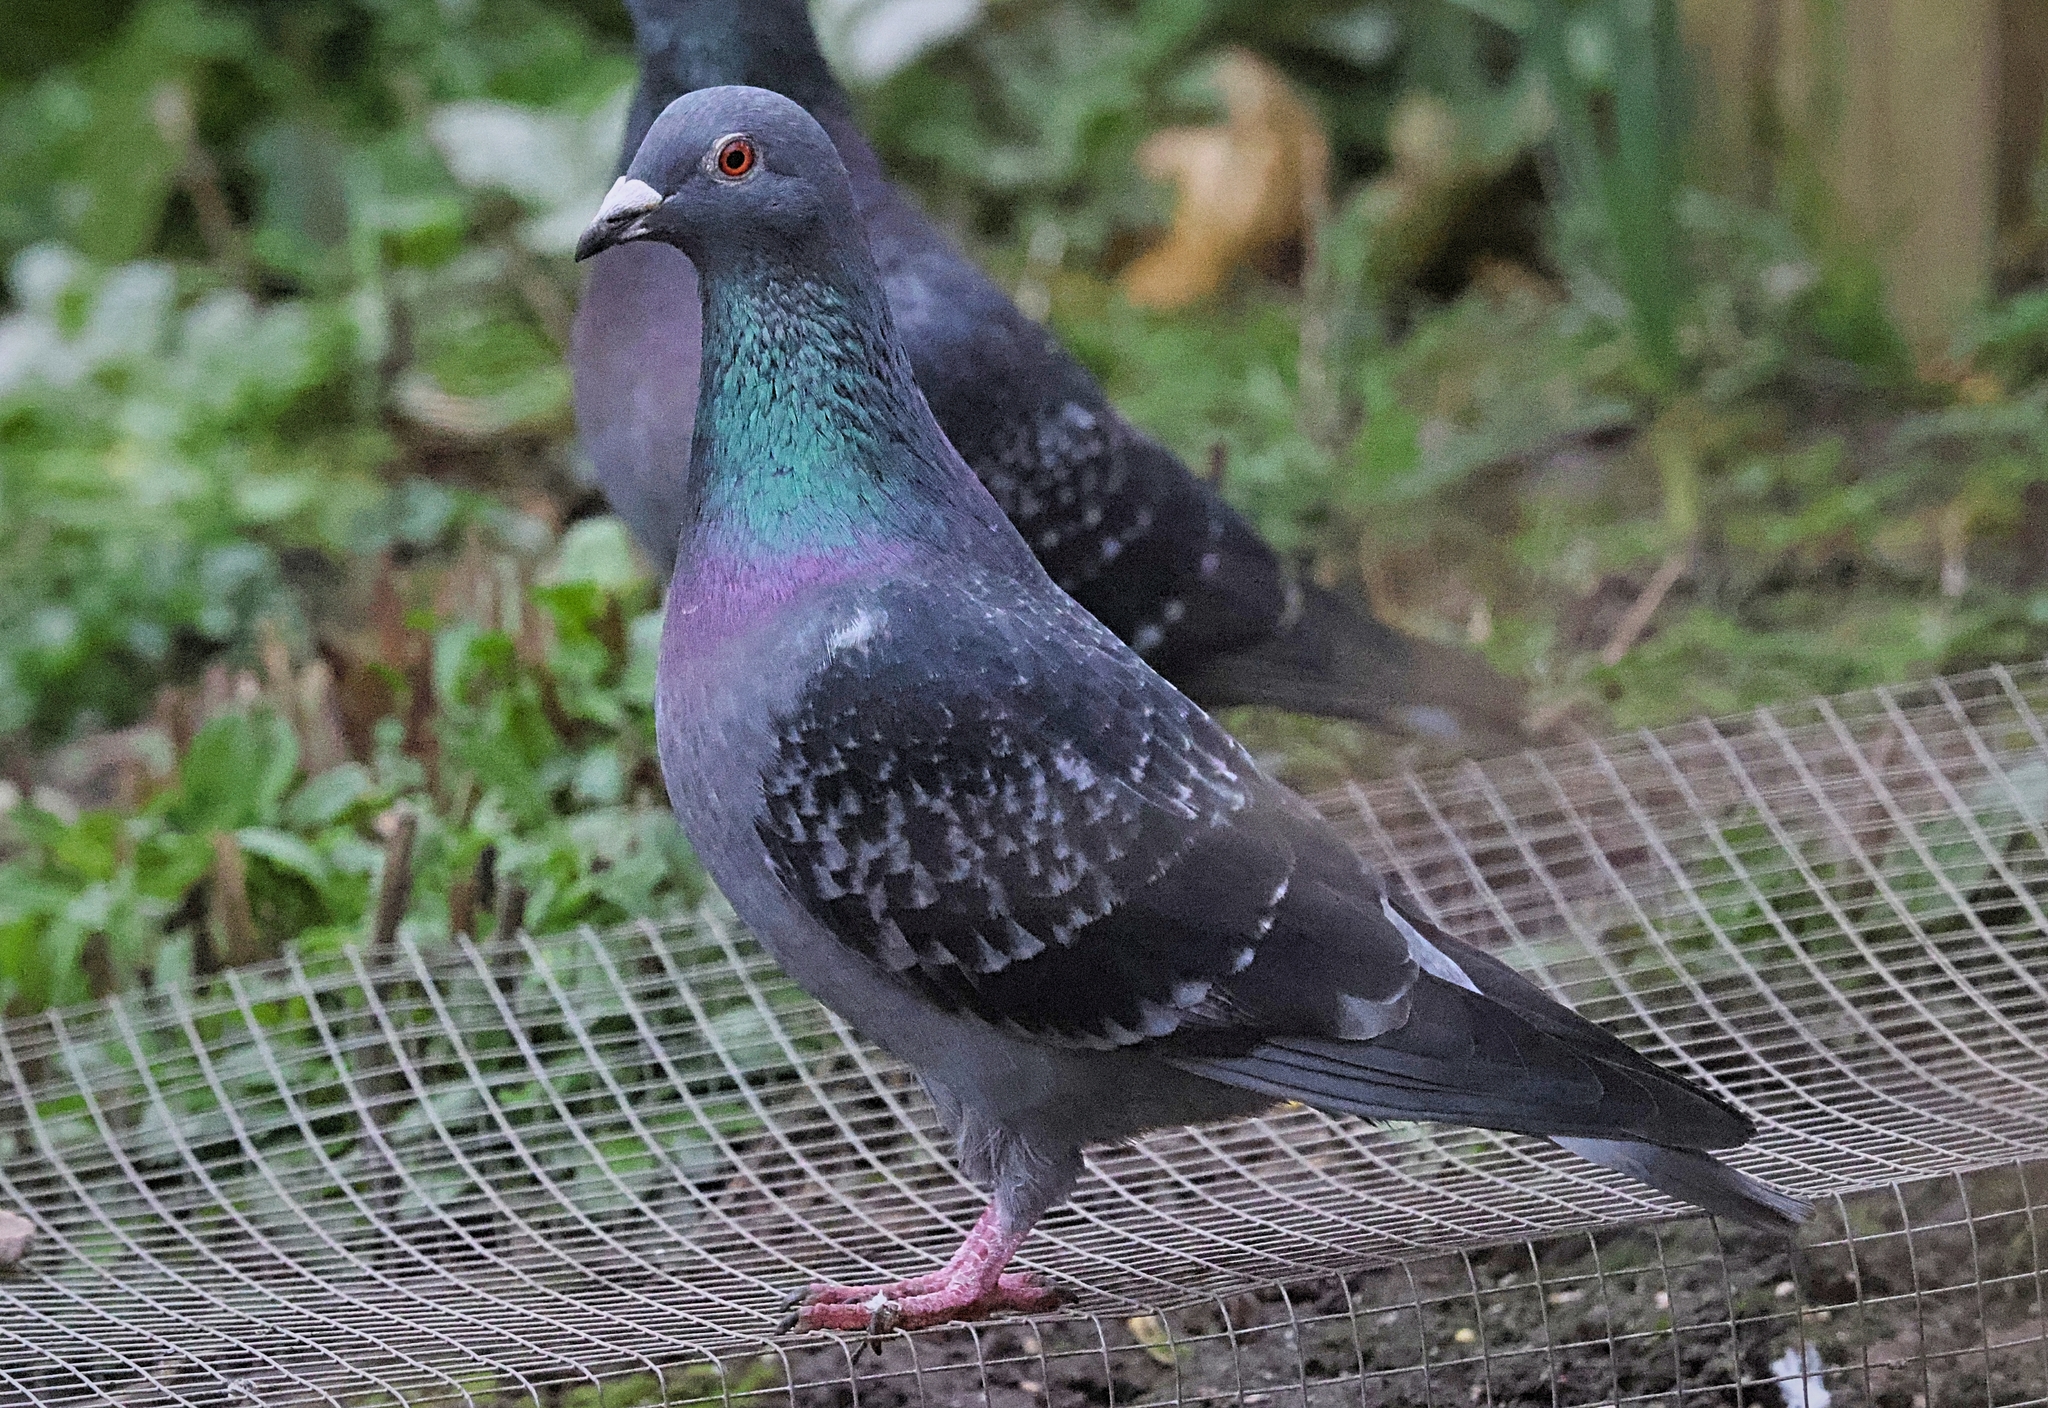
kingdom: Animalia
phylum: Chordata
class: Aves
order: Columbiformes
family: Columbidae
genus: Columba
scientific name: Columba livia
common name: Rock pigeon
